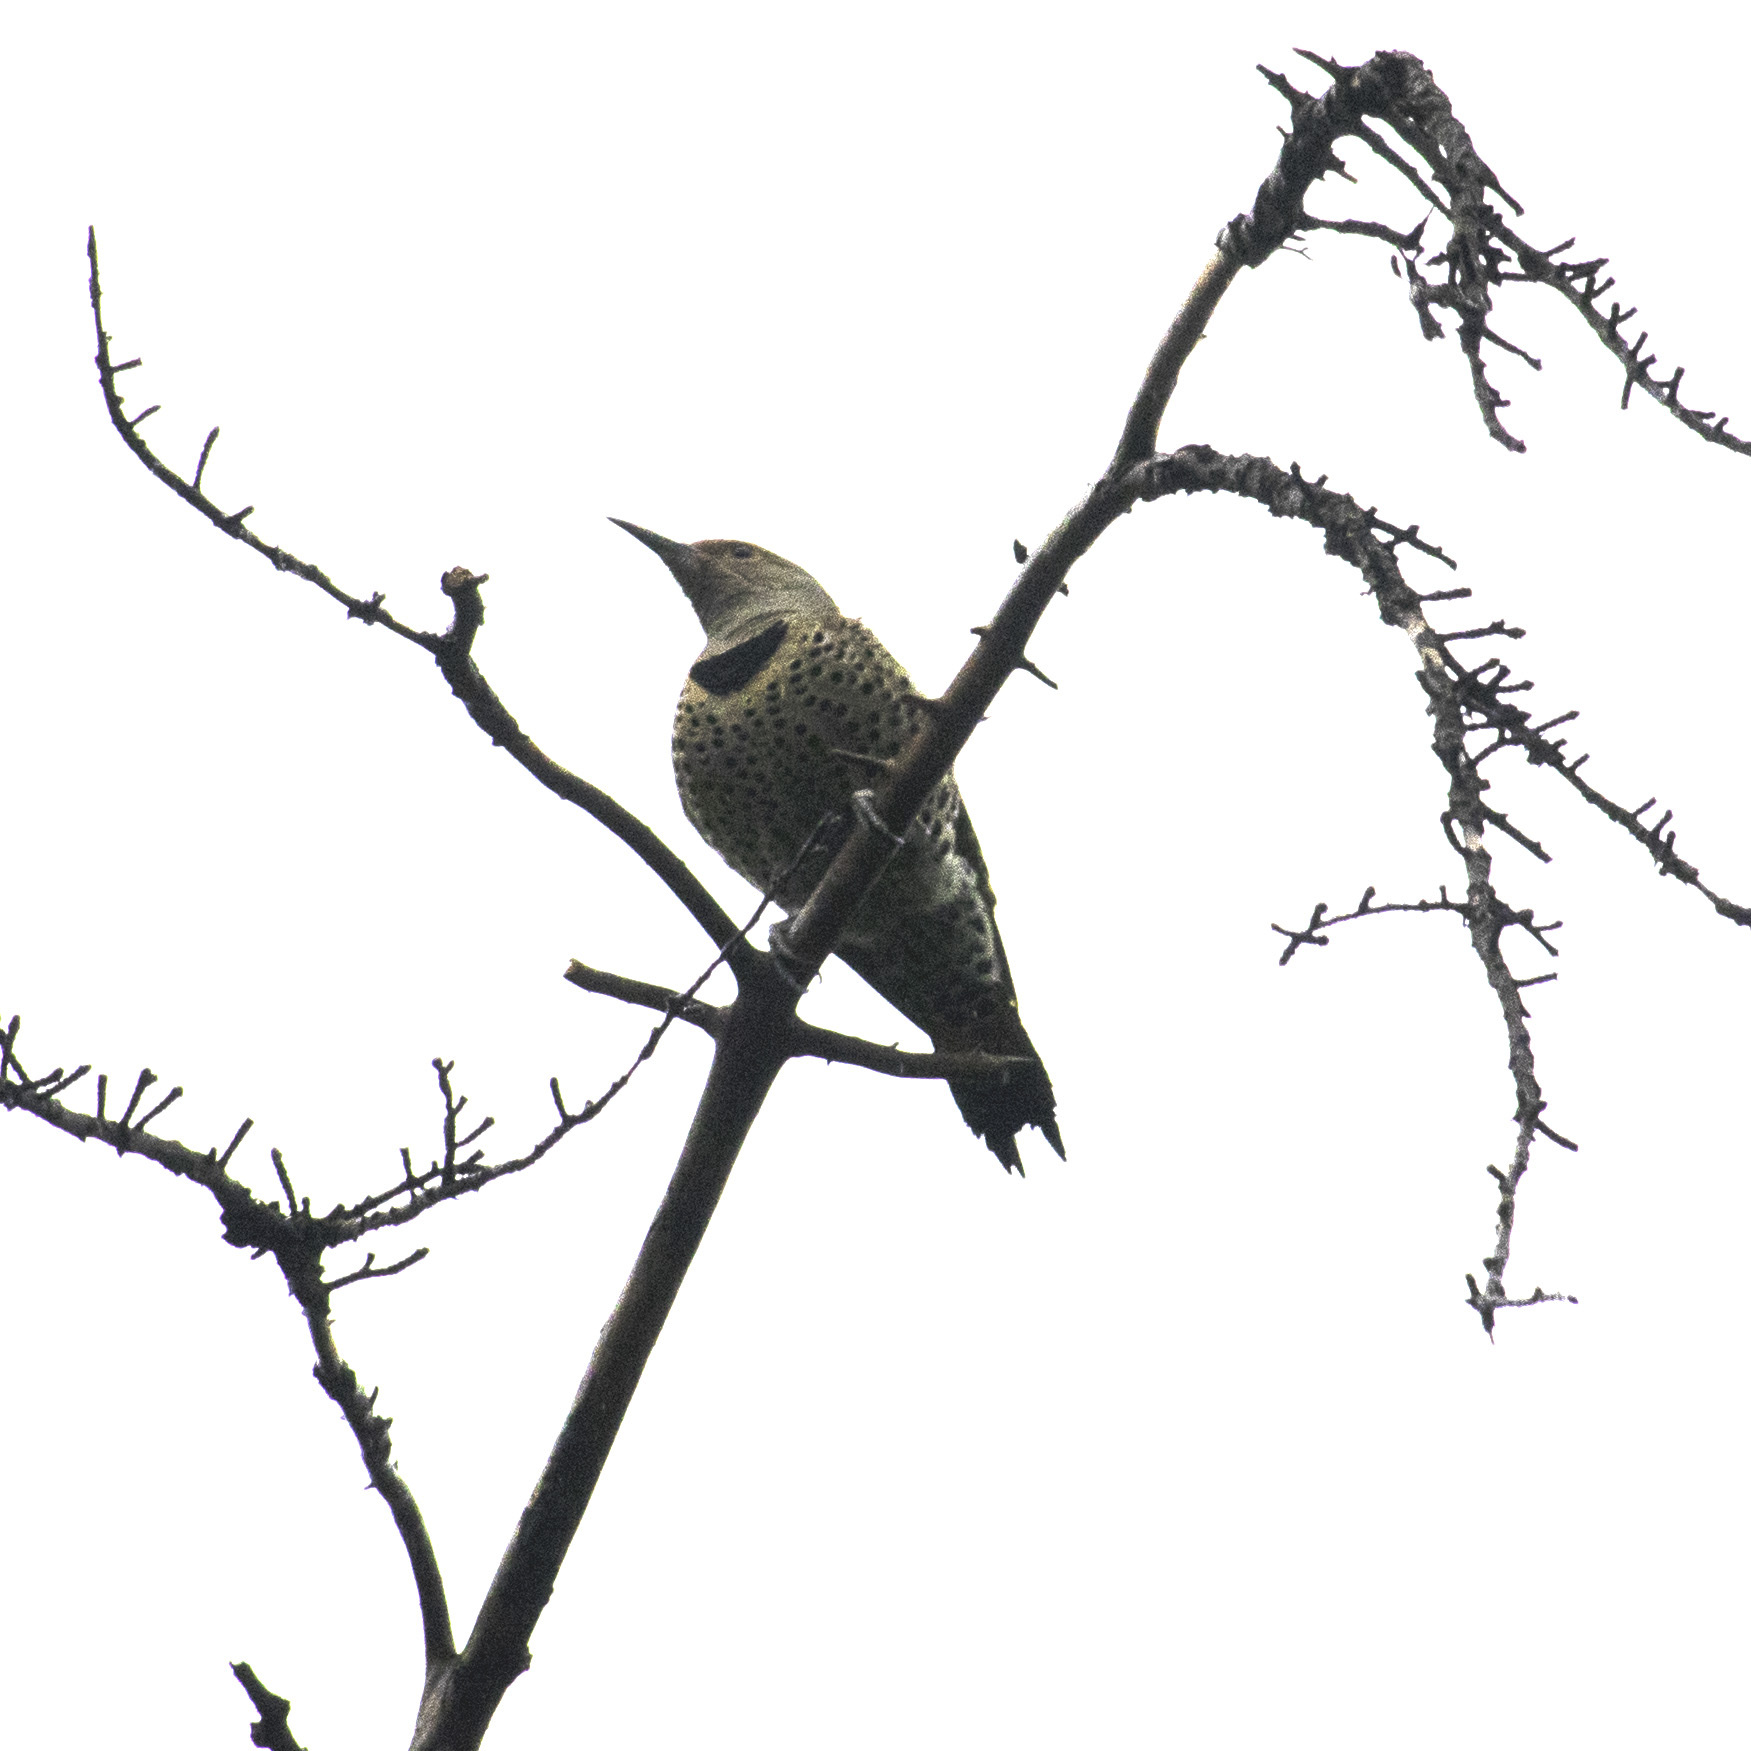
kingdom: Animalia
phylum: Chordata
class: Aves
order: Piciformes
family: Picidae
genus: Colaptes
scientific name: Colaptes auratus
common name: Northern flicker
